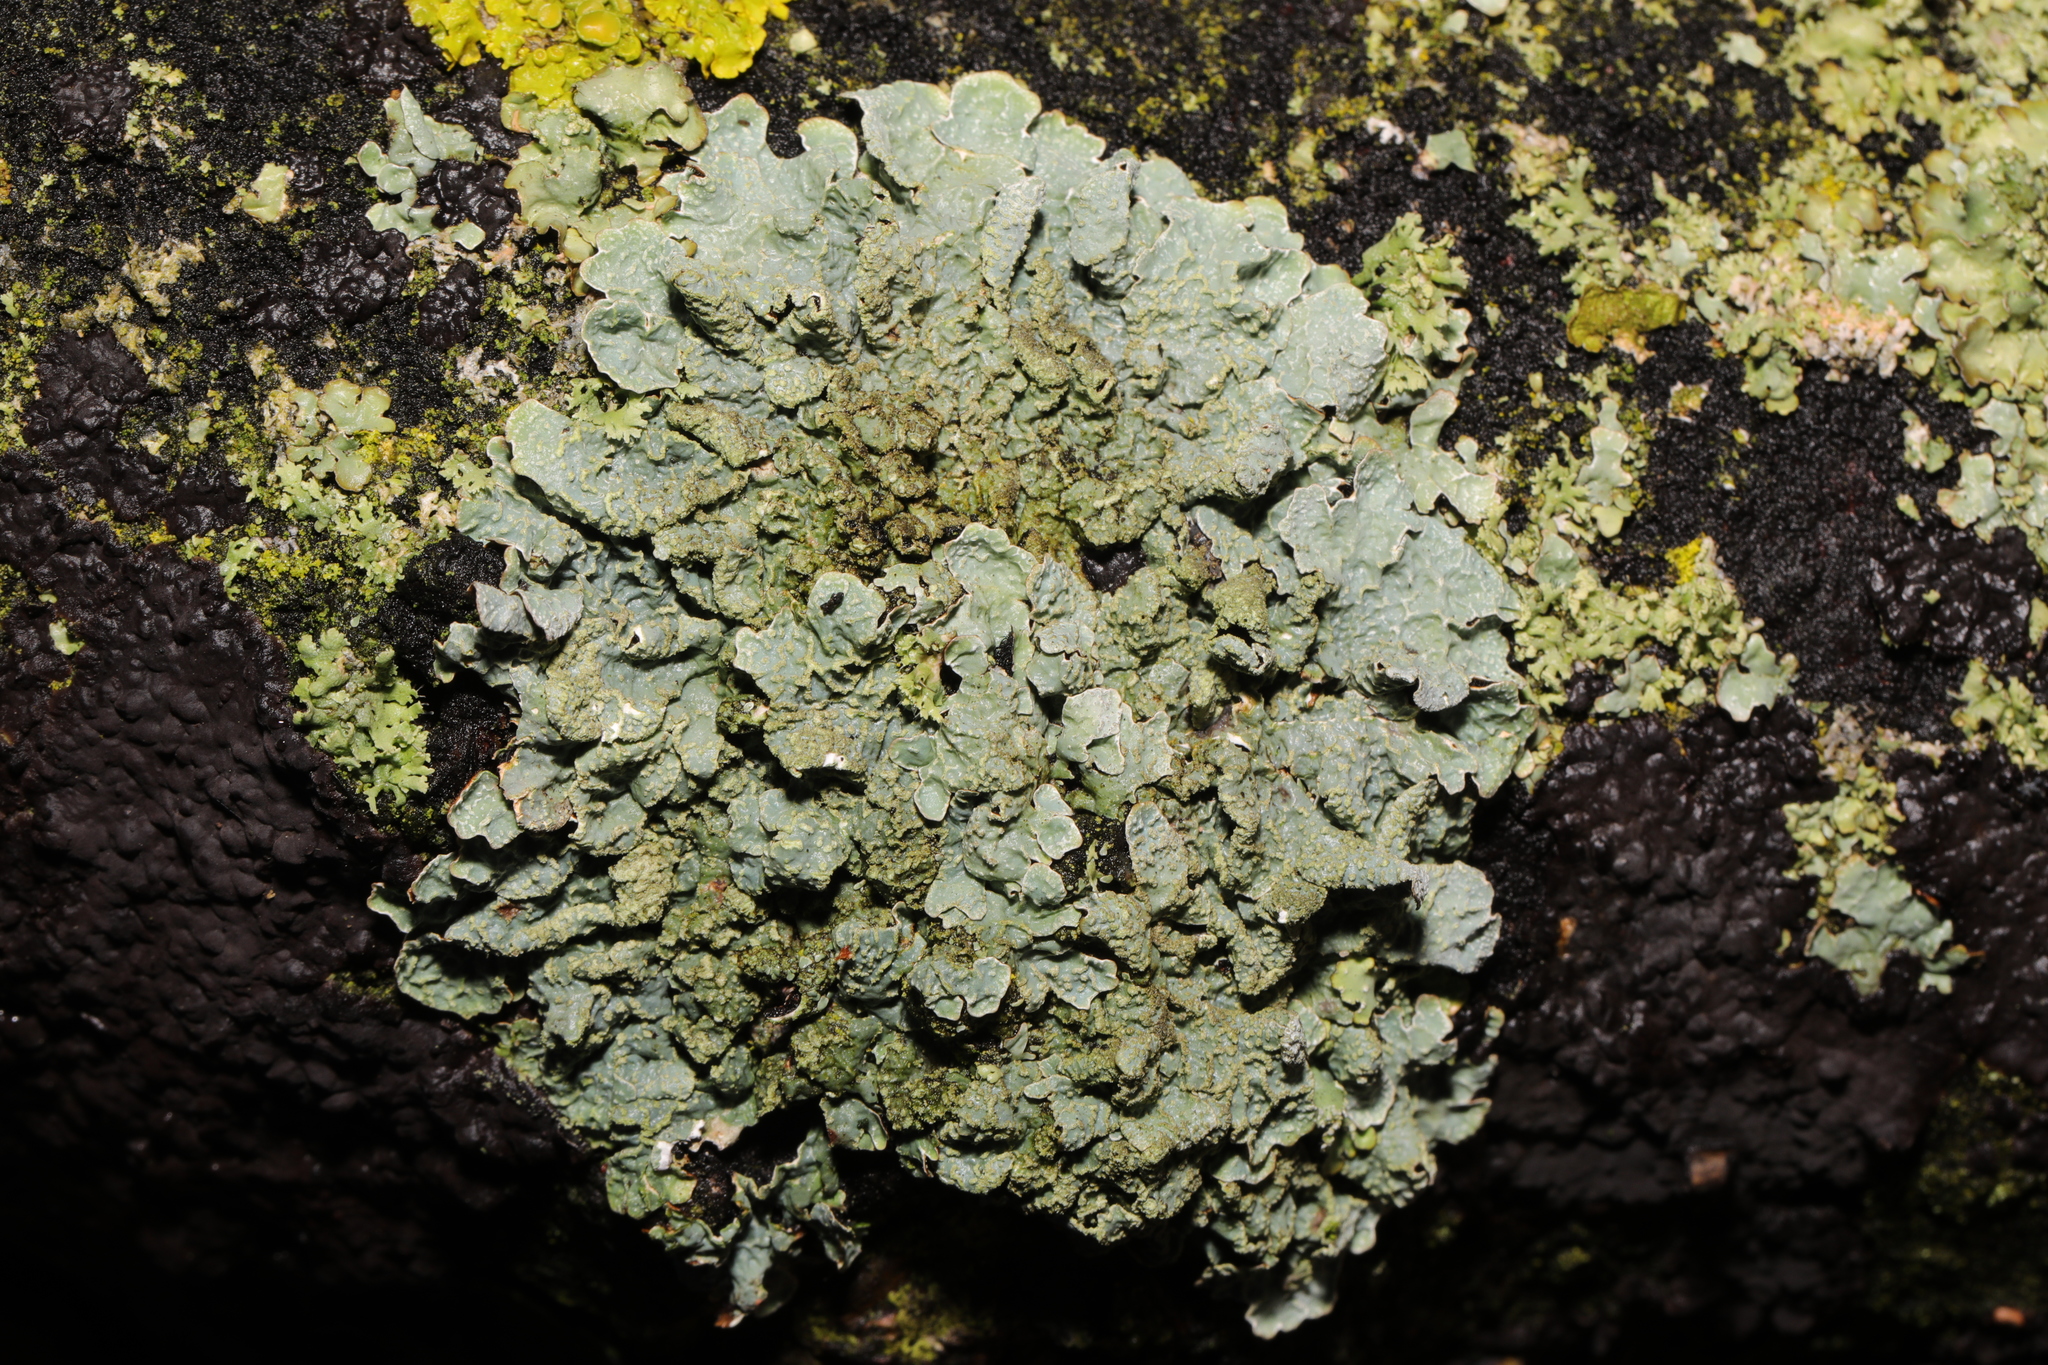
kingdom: Fungi
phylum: Ascomycota
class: Lecanoromycetes
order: Lecanorales
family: Parmeliaceae
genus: Parmelia
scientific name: Parmelia sulcata
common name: Netted shield lichen
